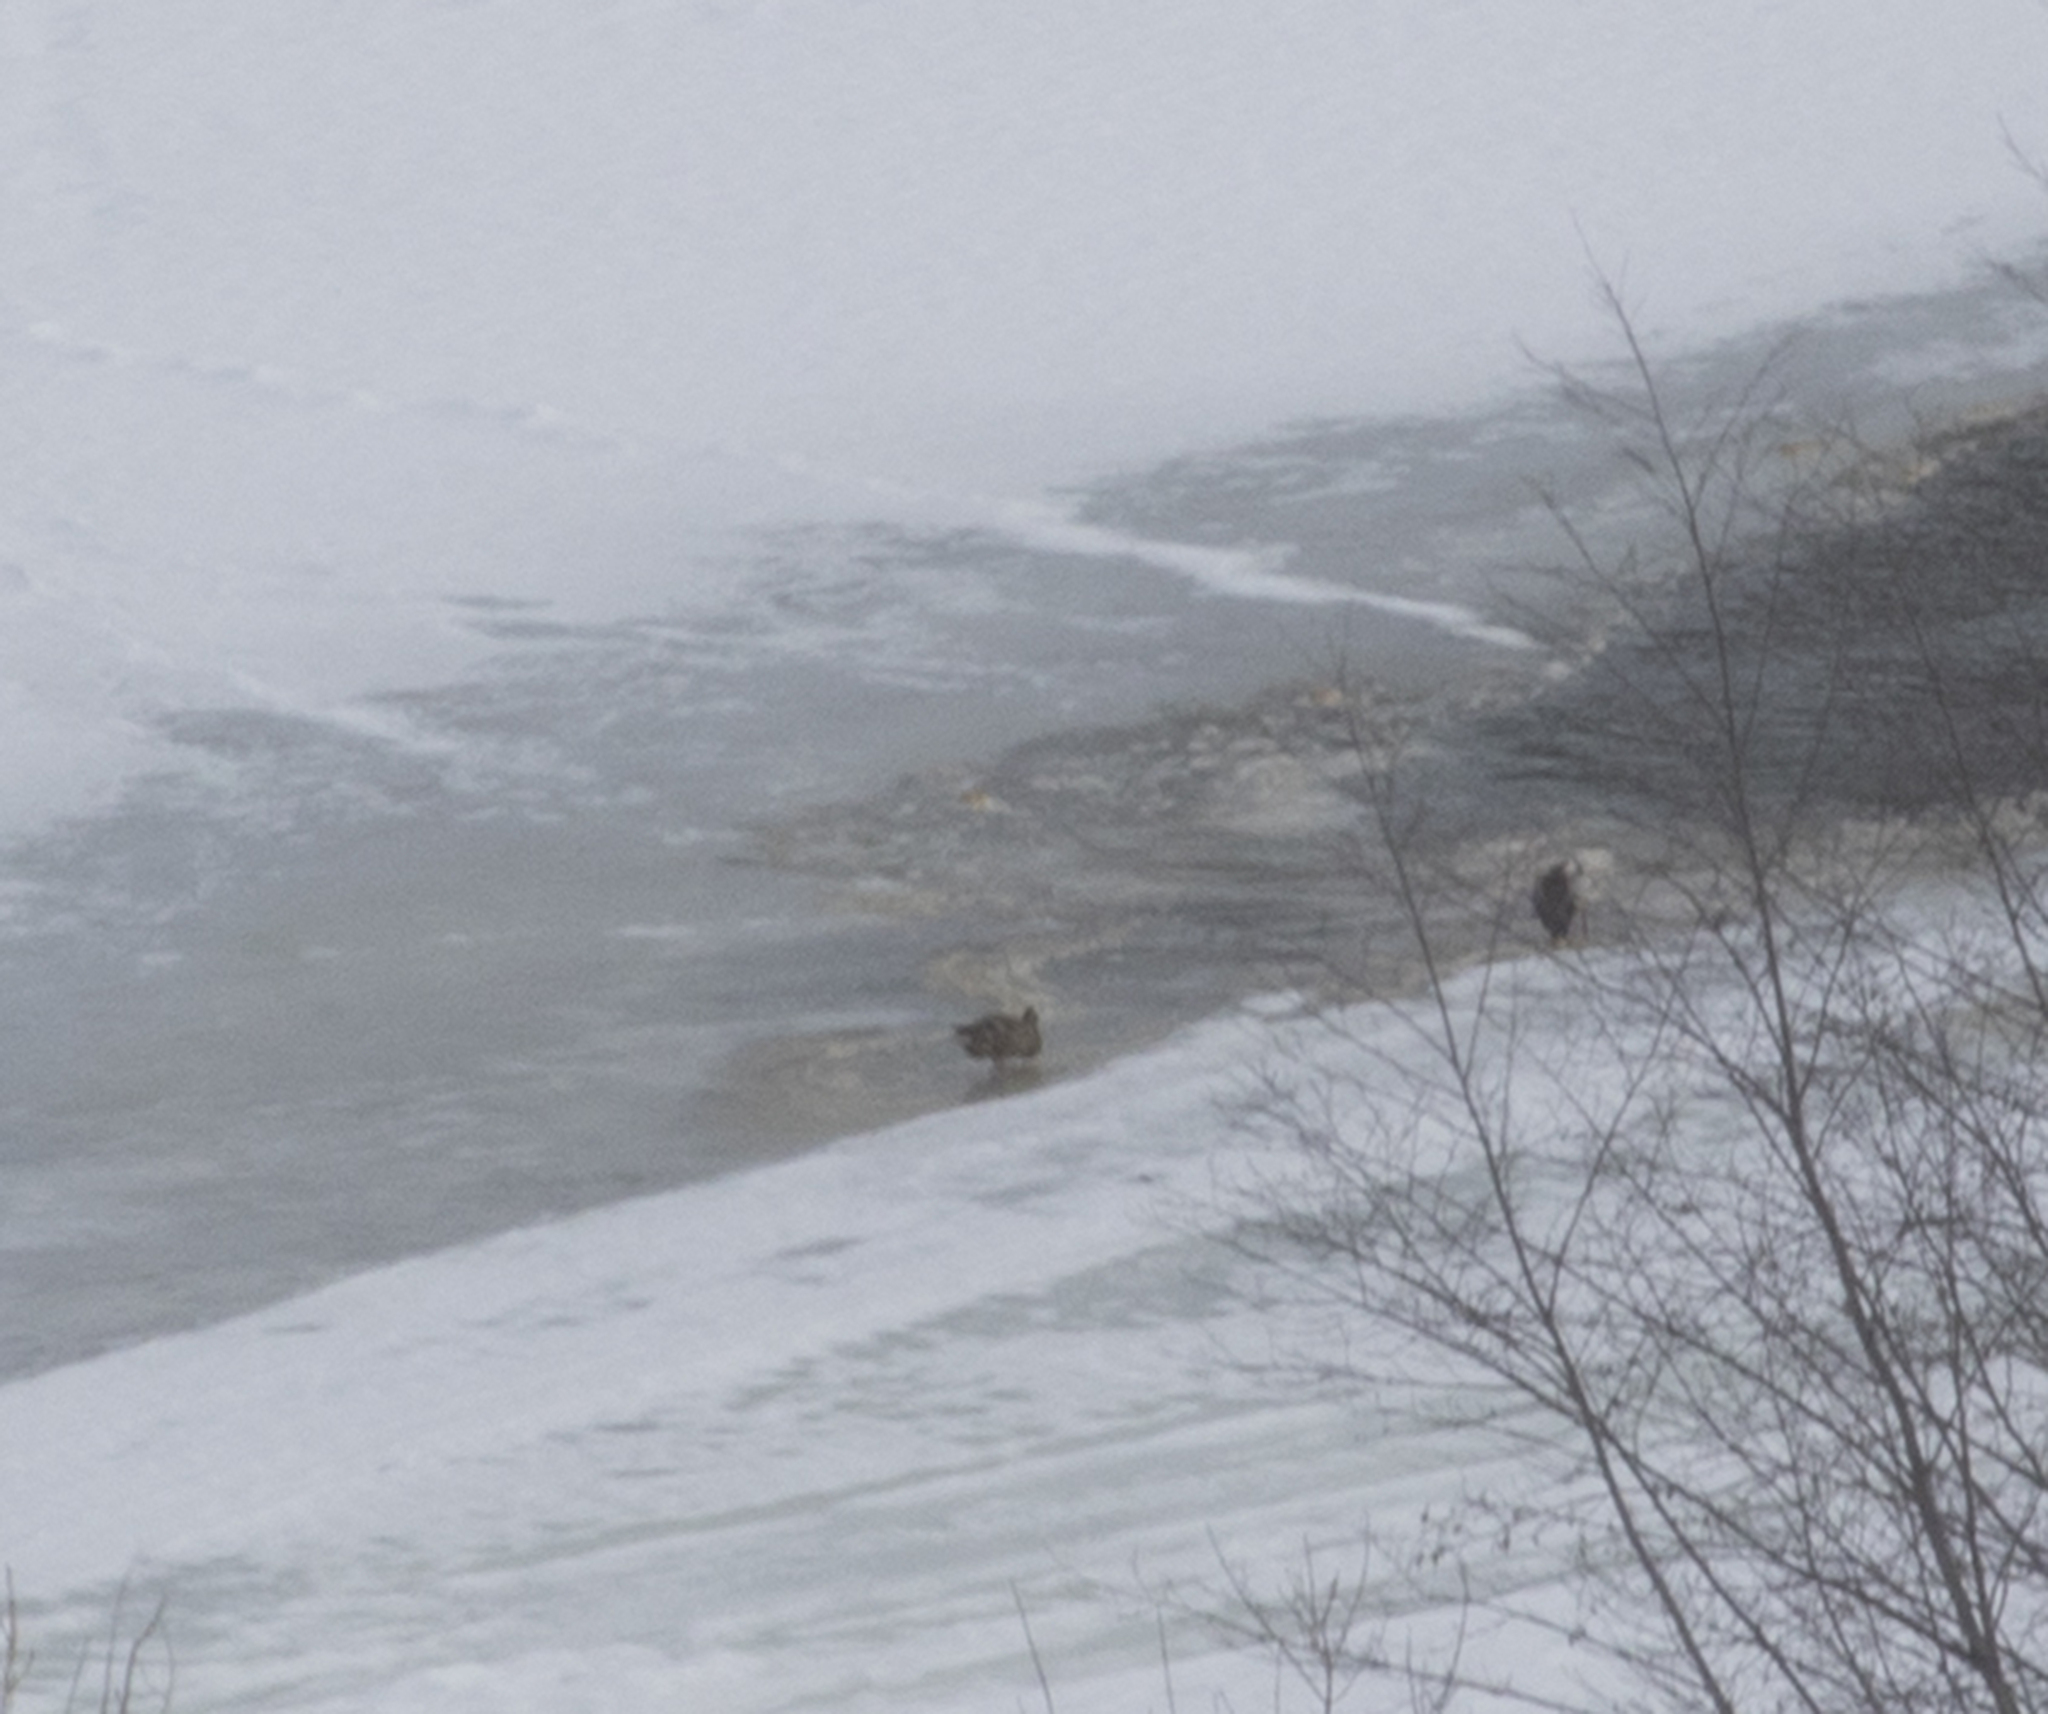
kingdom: Animalia
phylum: Chordata
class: Aves
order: Anseriformes
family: Anatidae
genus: Anas
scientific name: Anas platyrhynchos
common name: Mallard
